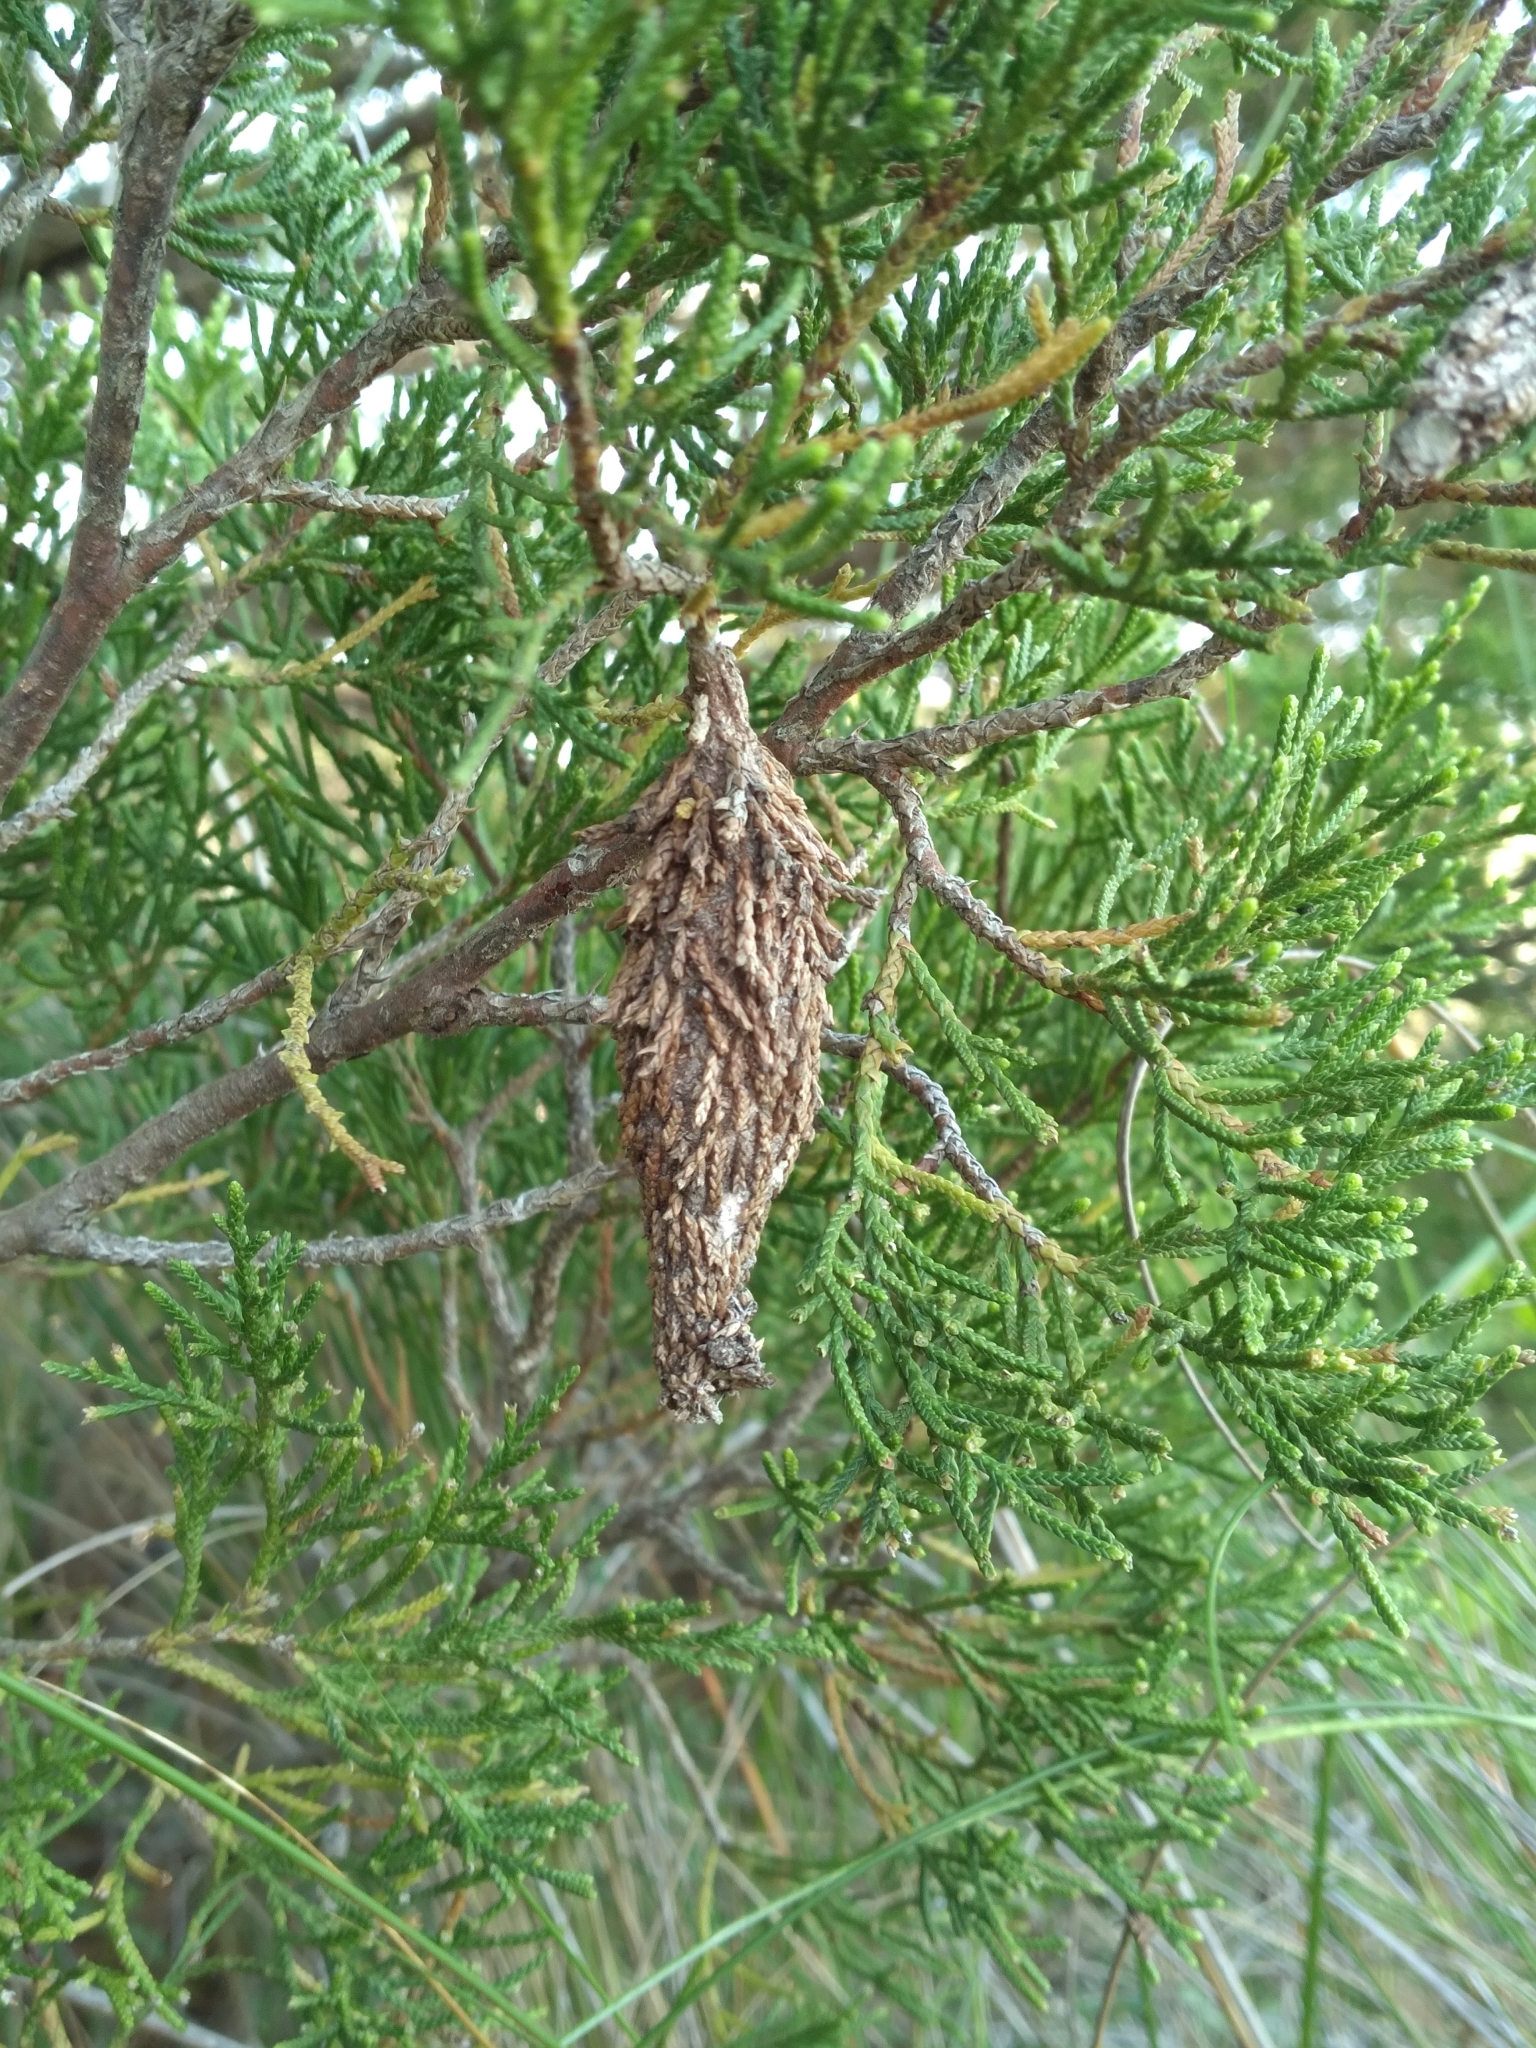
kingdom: Animalia
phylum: Arthropoda
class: Insecta
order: Lepidoptera
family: Psychidae
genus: Thyridopteryx
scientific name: Thyridopteryx ephemeraeformis
